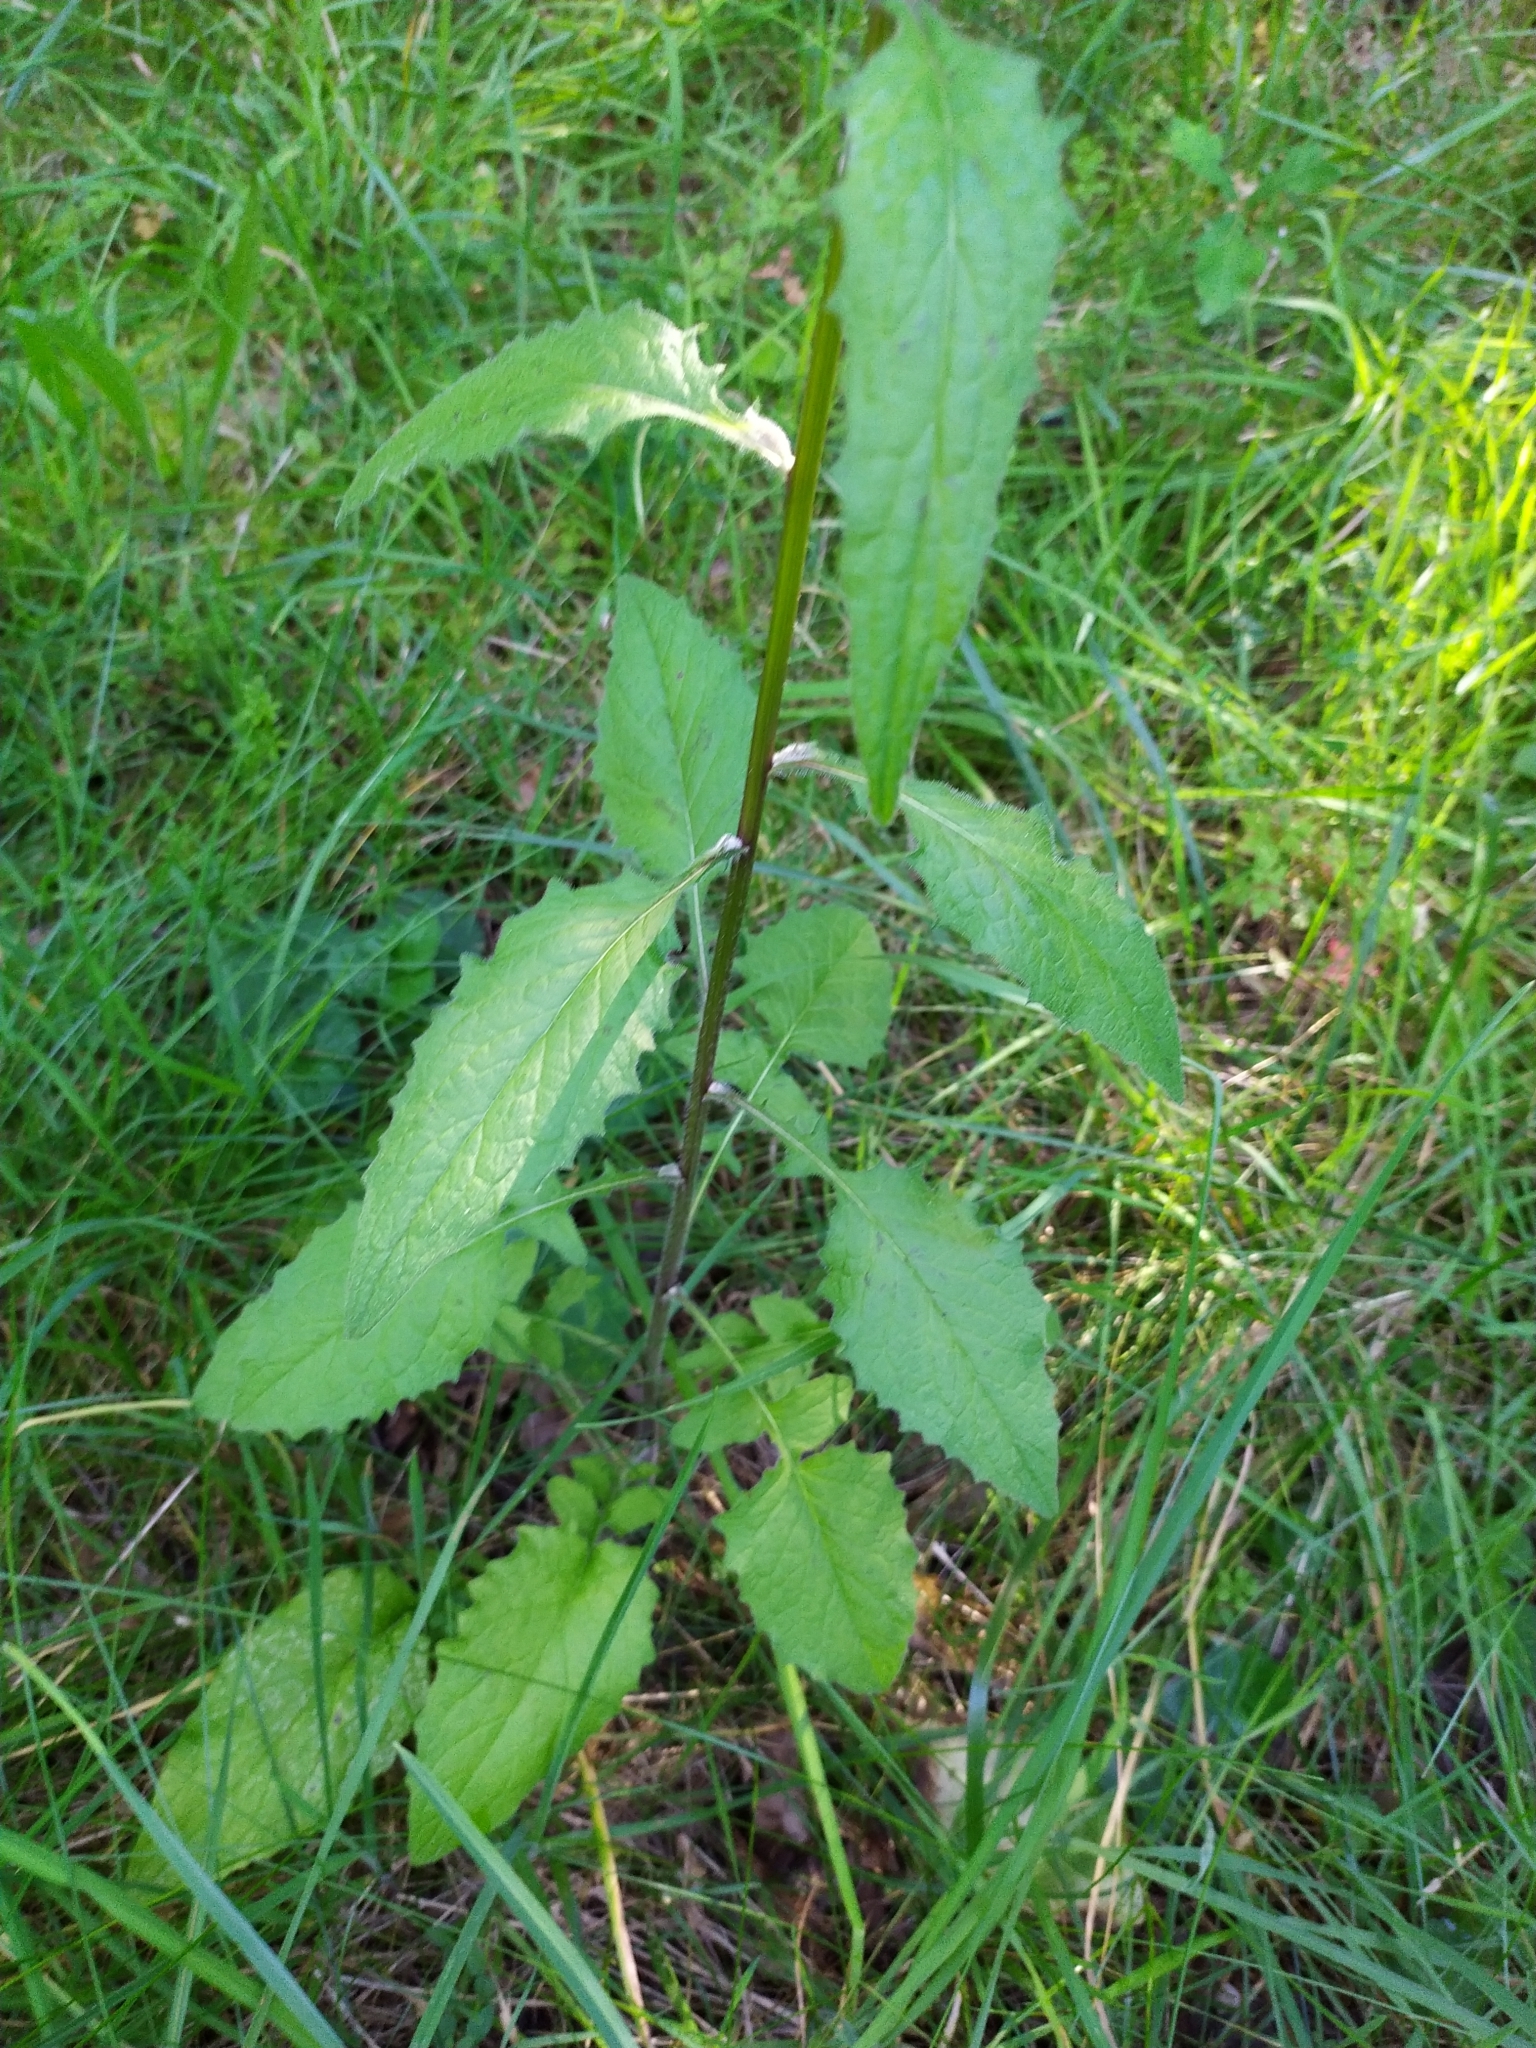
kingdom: Plantae
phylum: Tracheophyta
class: Magnoliopsida
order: Asterales
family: Asteraceae
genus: Lapsana
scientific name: Lapsana communis
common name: Nipplewort
